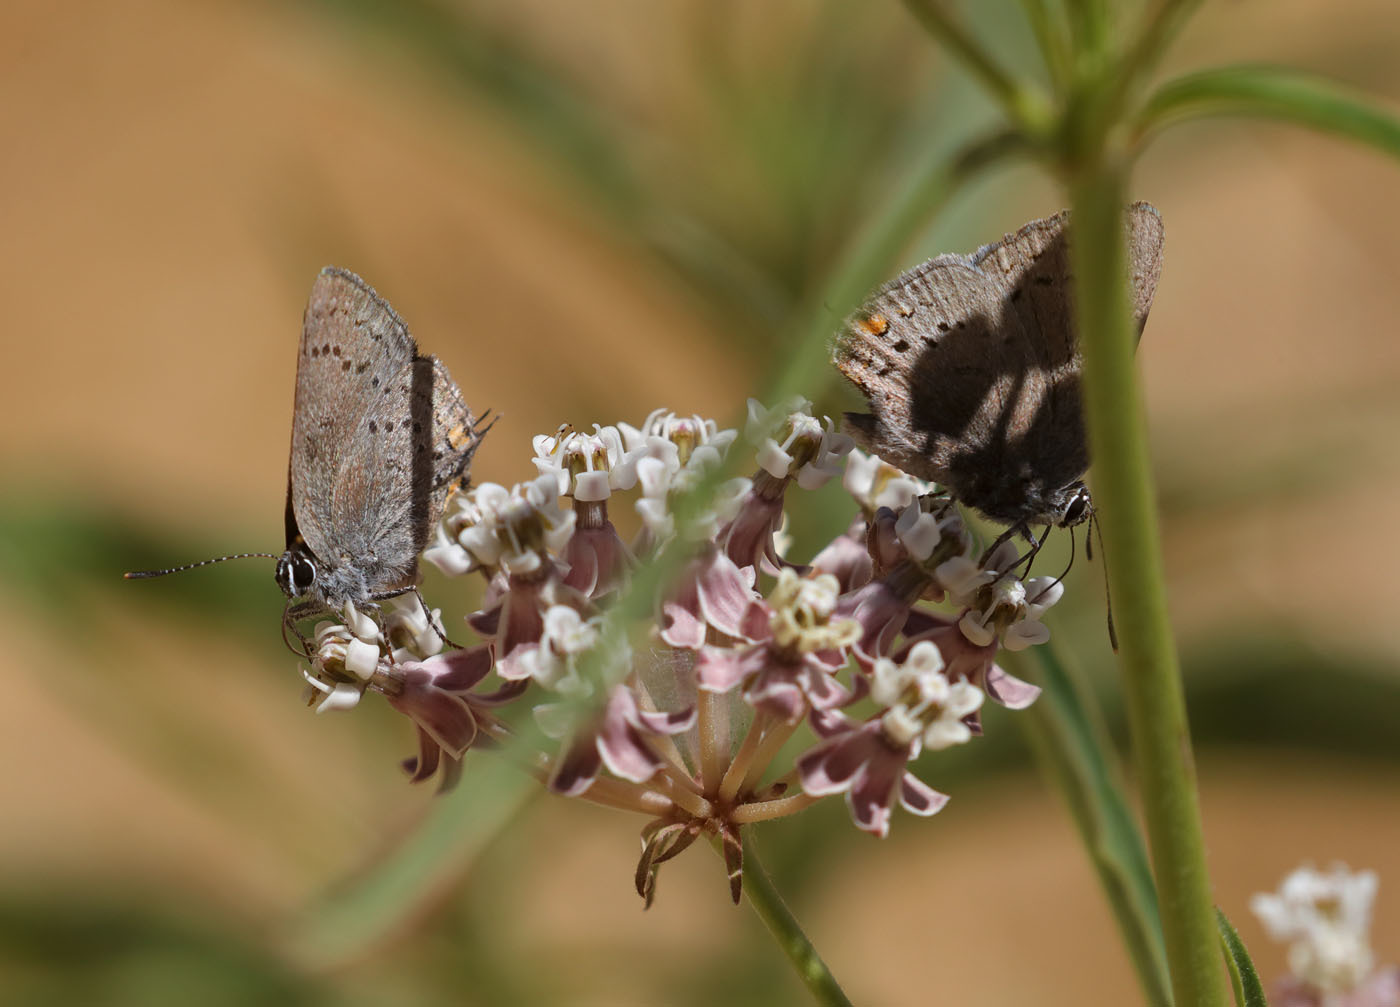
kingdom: Animalia
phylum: Arthropoda
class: Insecta
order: Lepidoptera
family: Lycaenidae
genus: Strymon
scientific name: Strymon acadica
